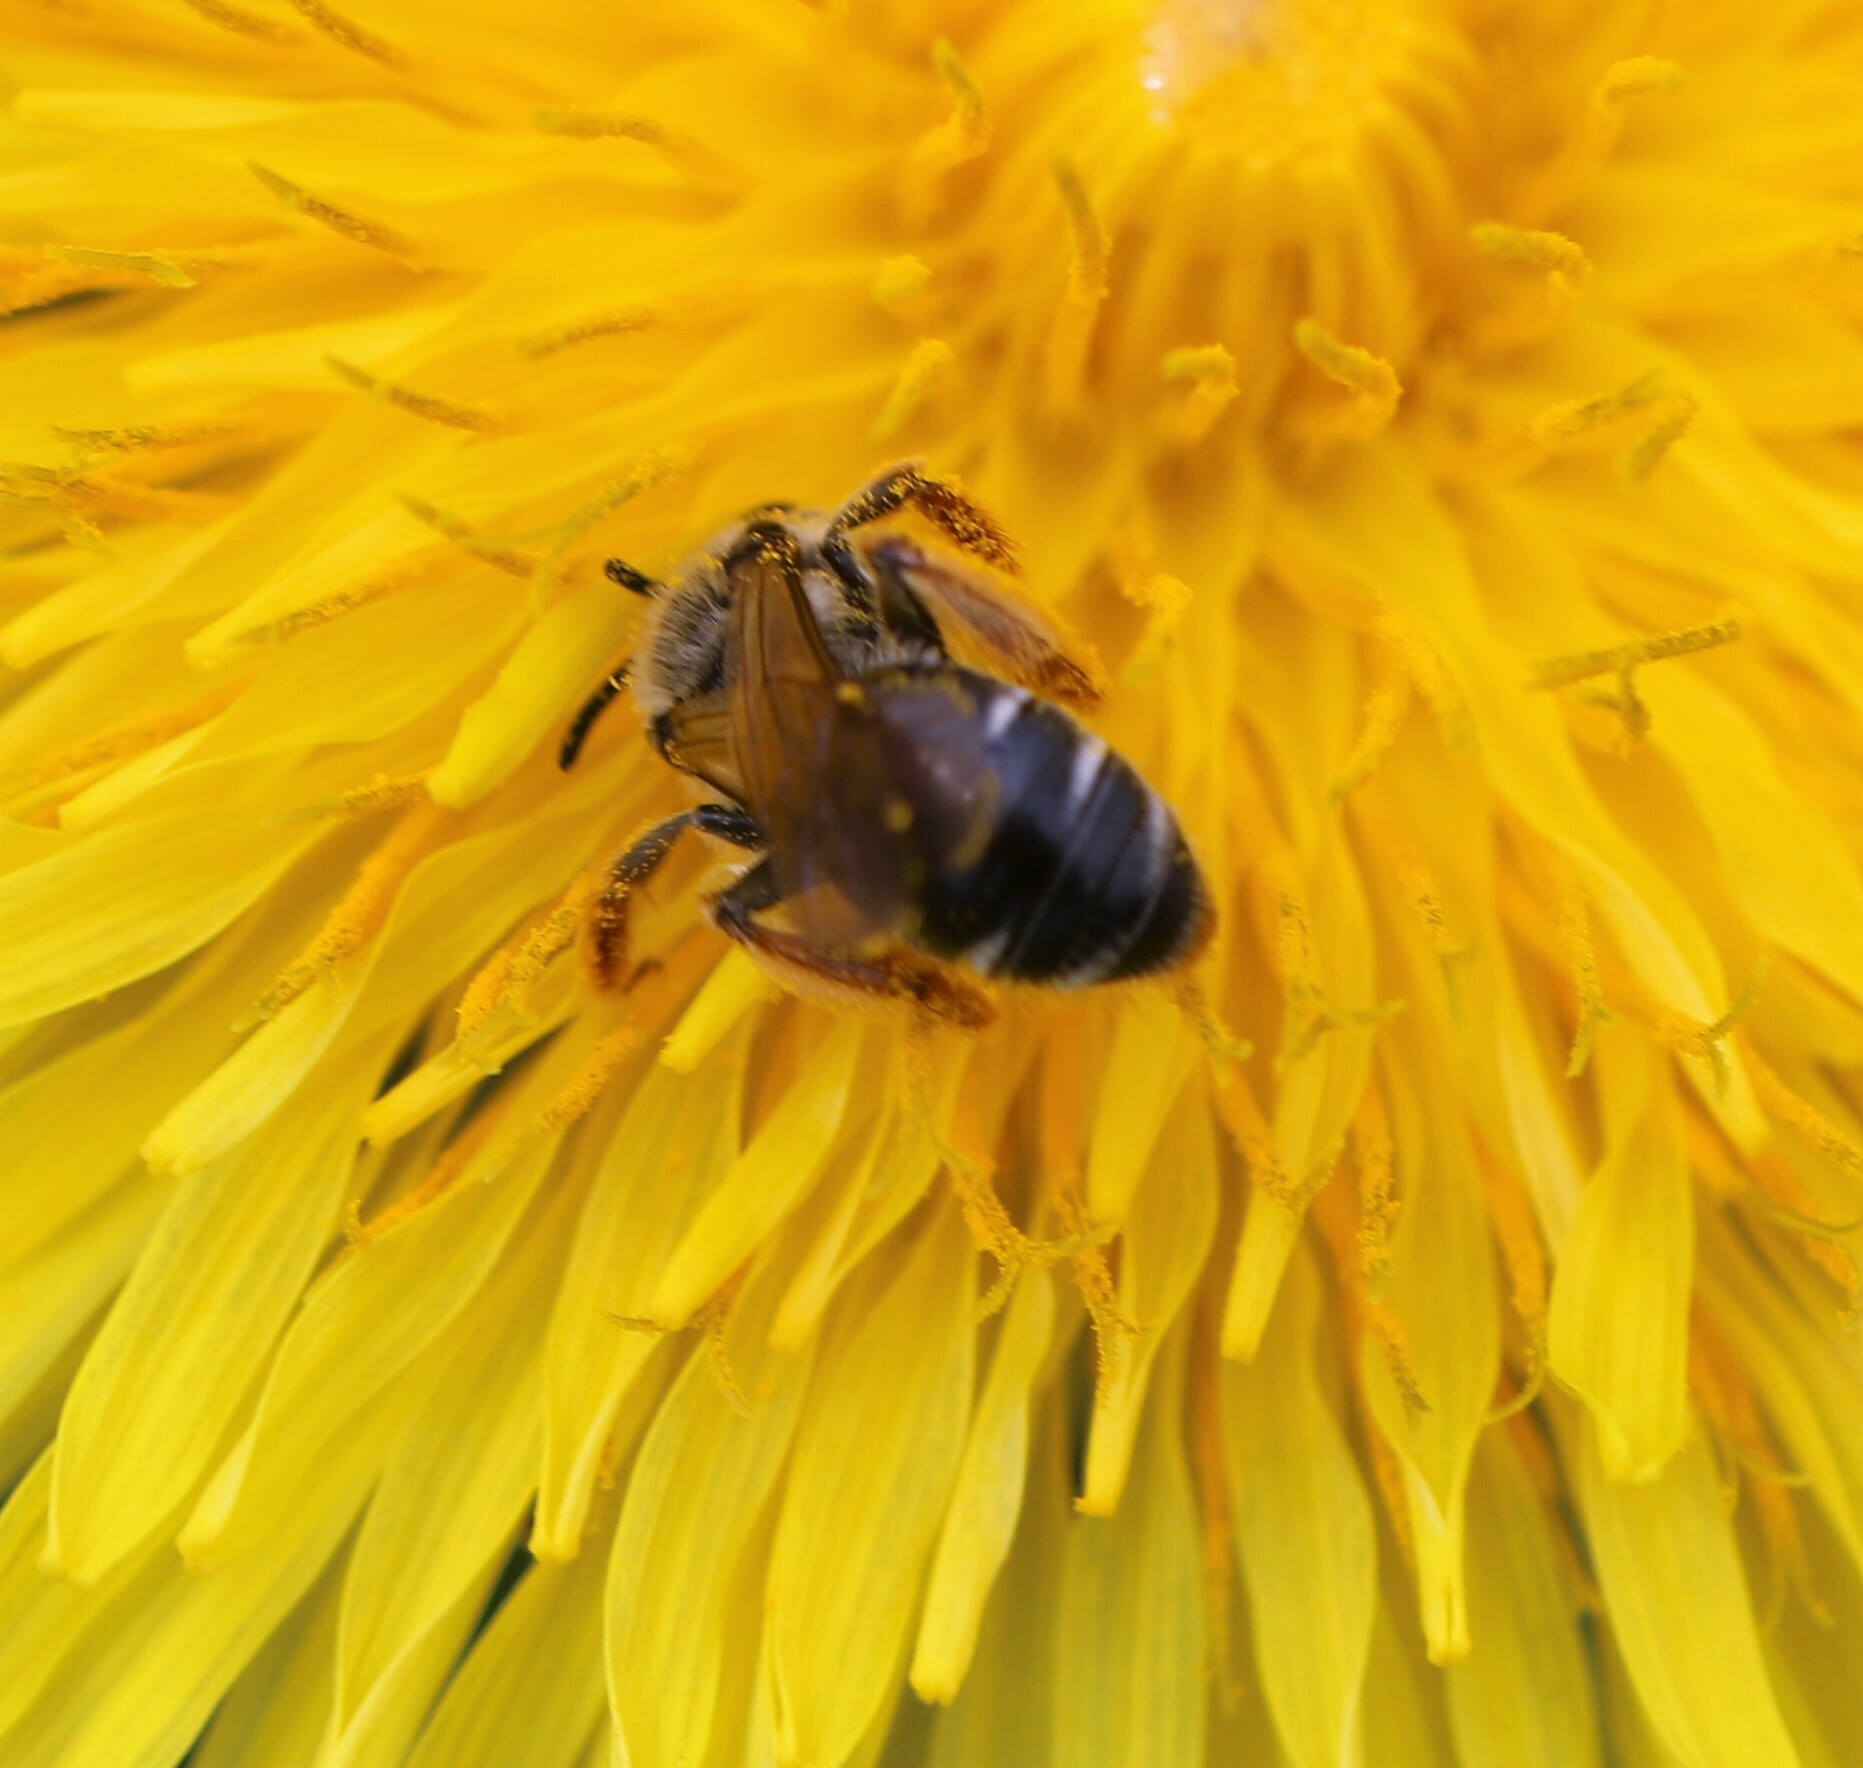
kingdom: Animalia
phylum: Arthropoda
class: Insecta
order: Hymenoptera
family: Andrenidae
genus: Andrena
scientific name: Andrena hippotes
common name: Hippotes's miner bee
